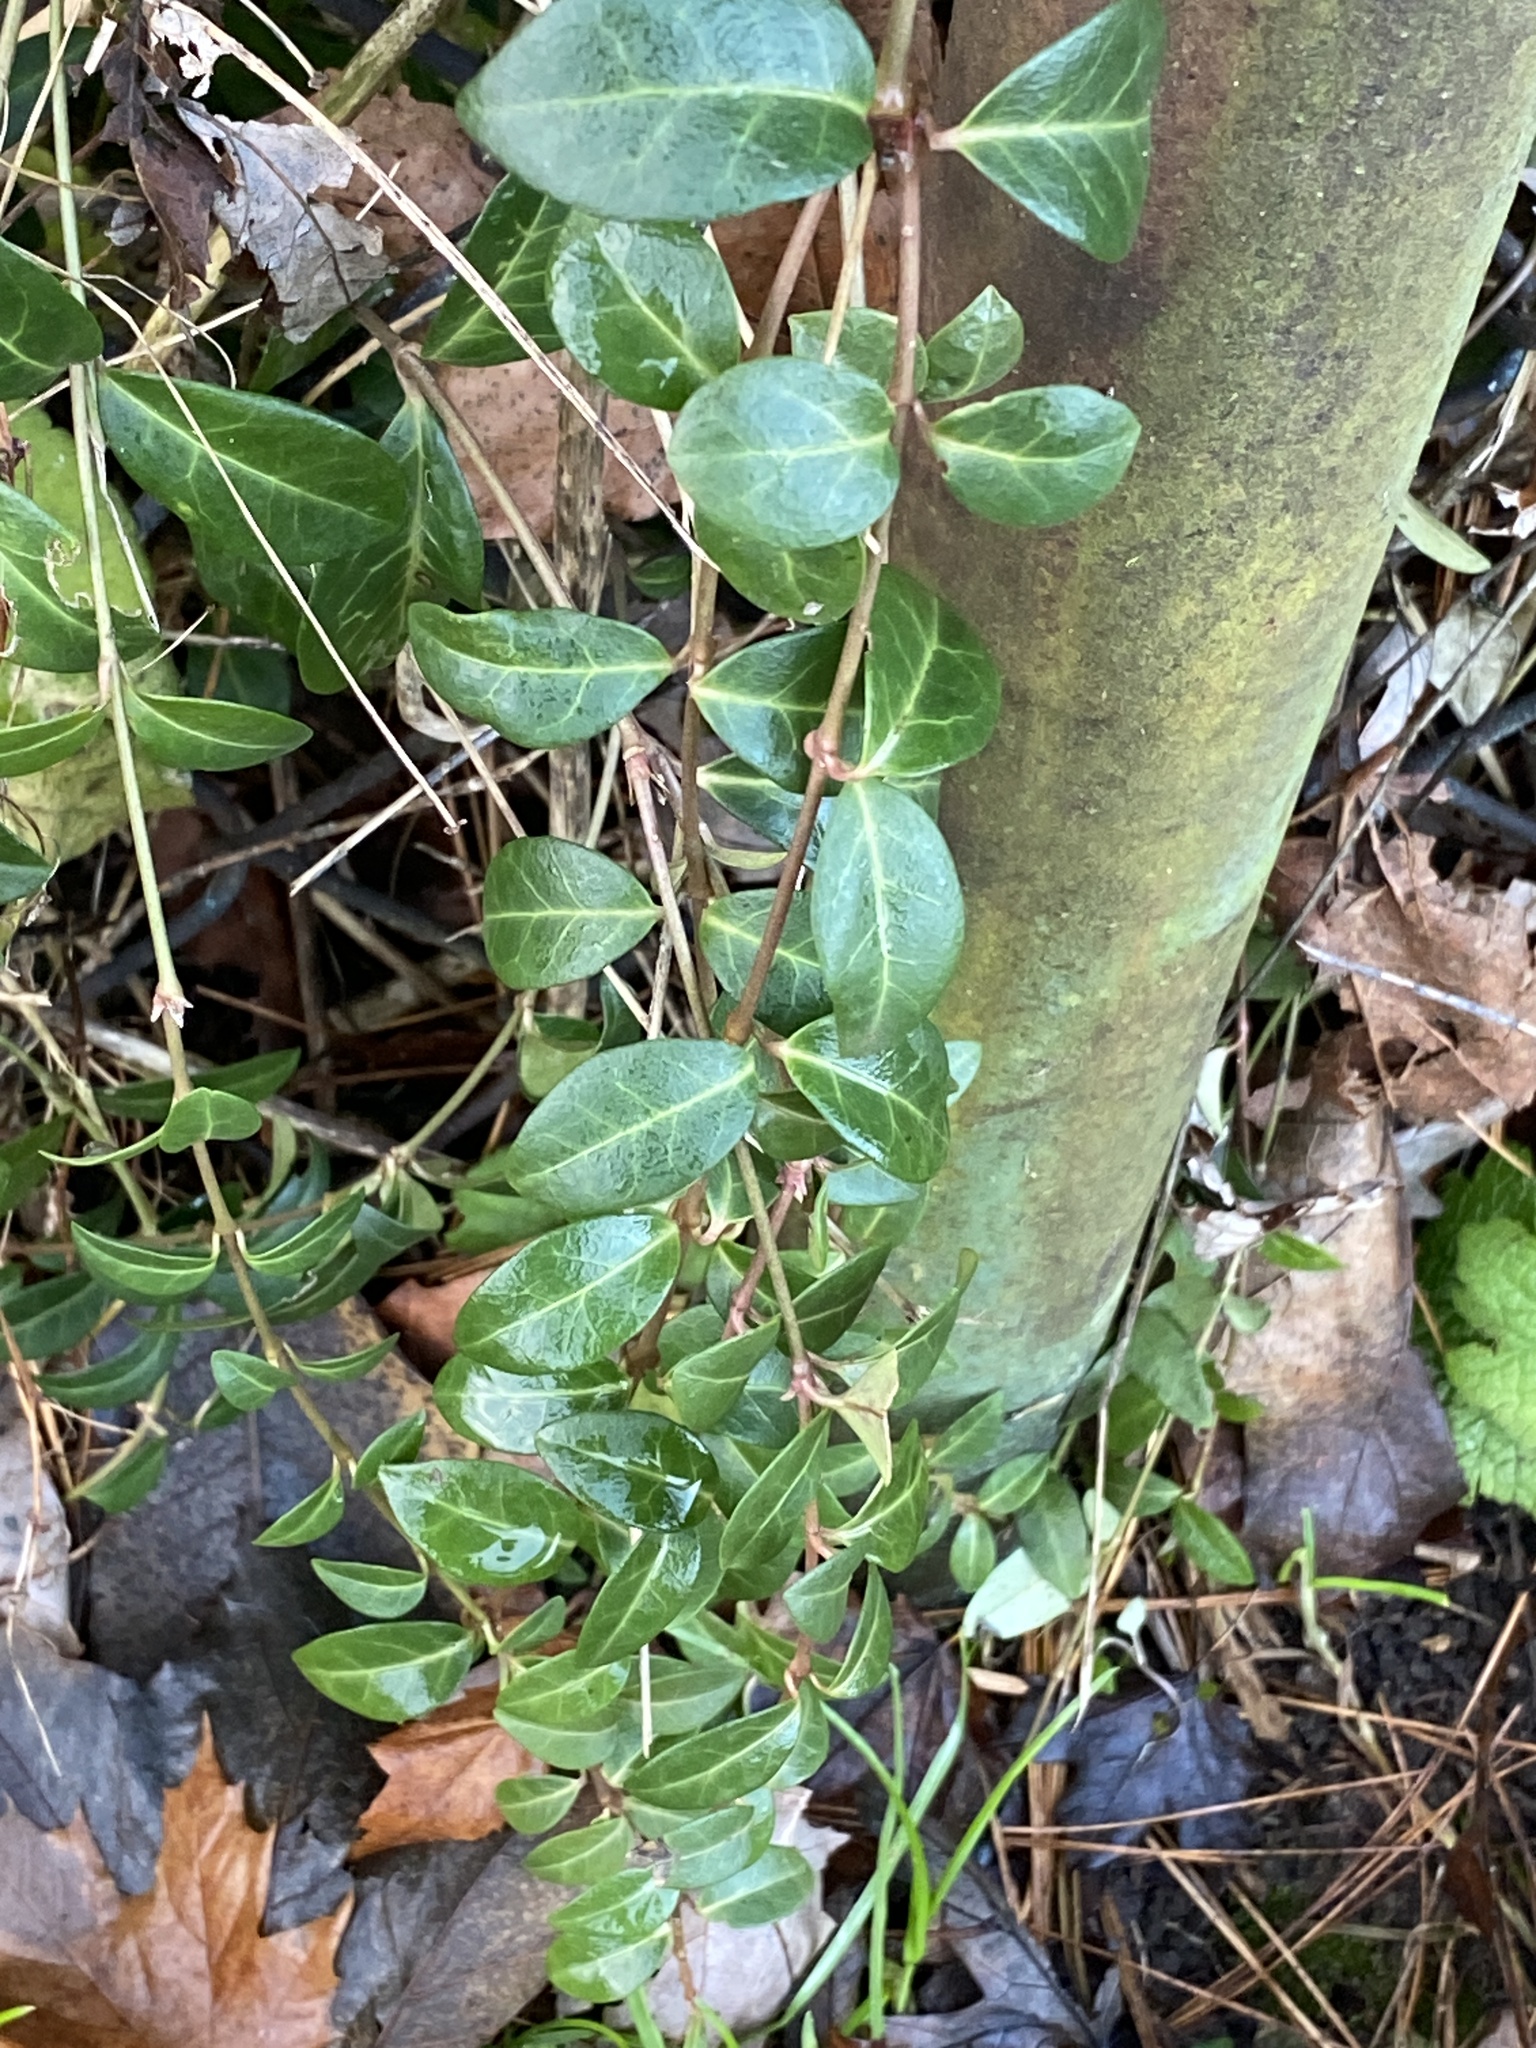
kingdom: Plantae
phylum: Tracheophyta
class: Magnoliopsida
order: Gentianales
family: Apocynaceae
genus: Vinca
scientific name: Vinca minor
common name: Lesser periwinkle
